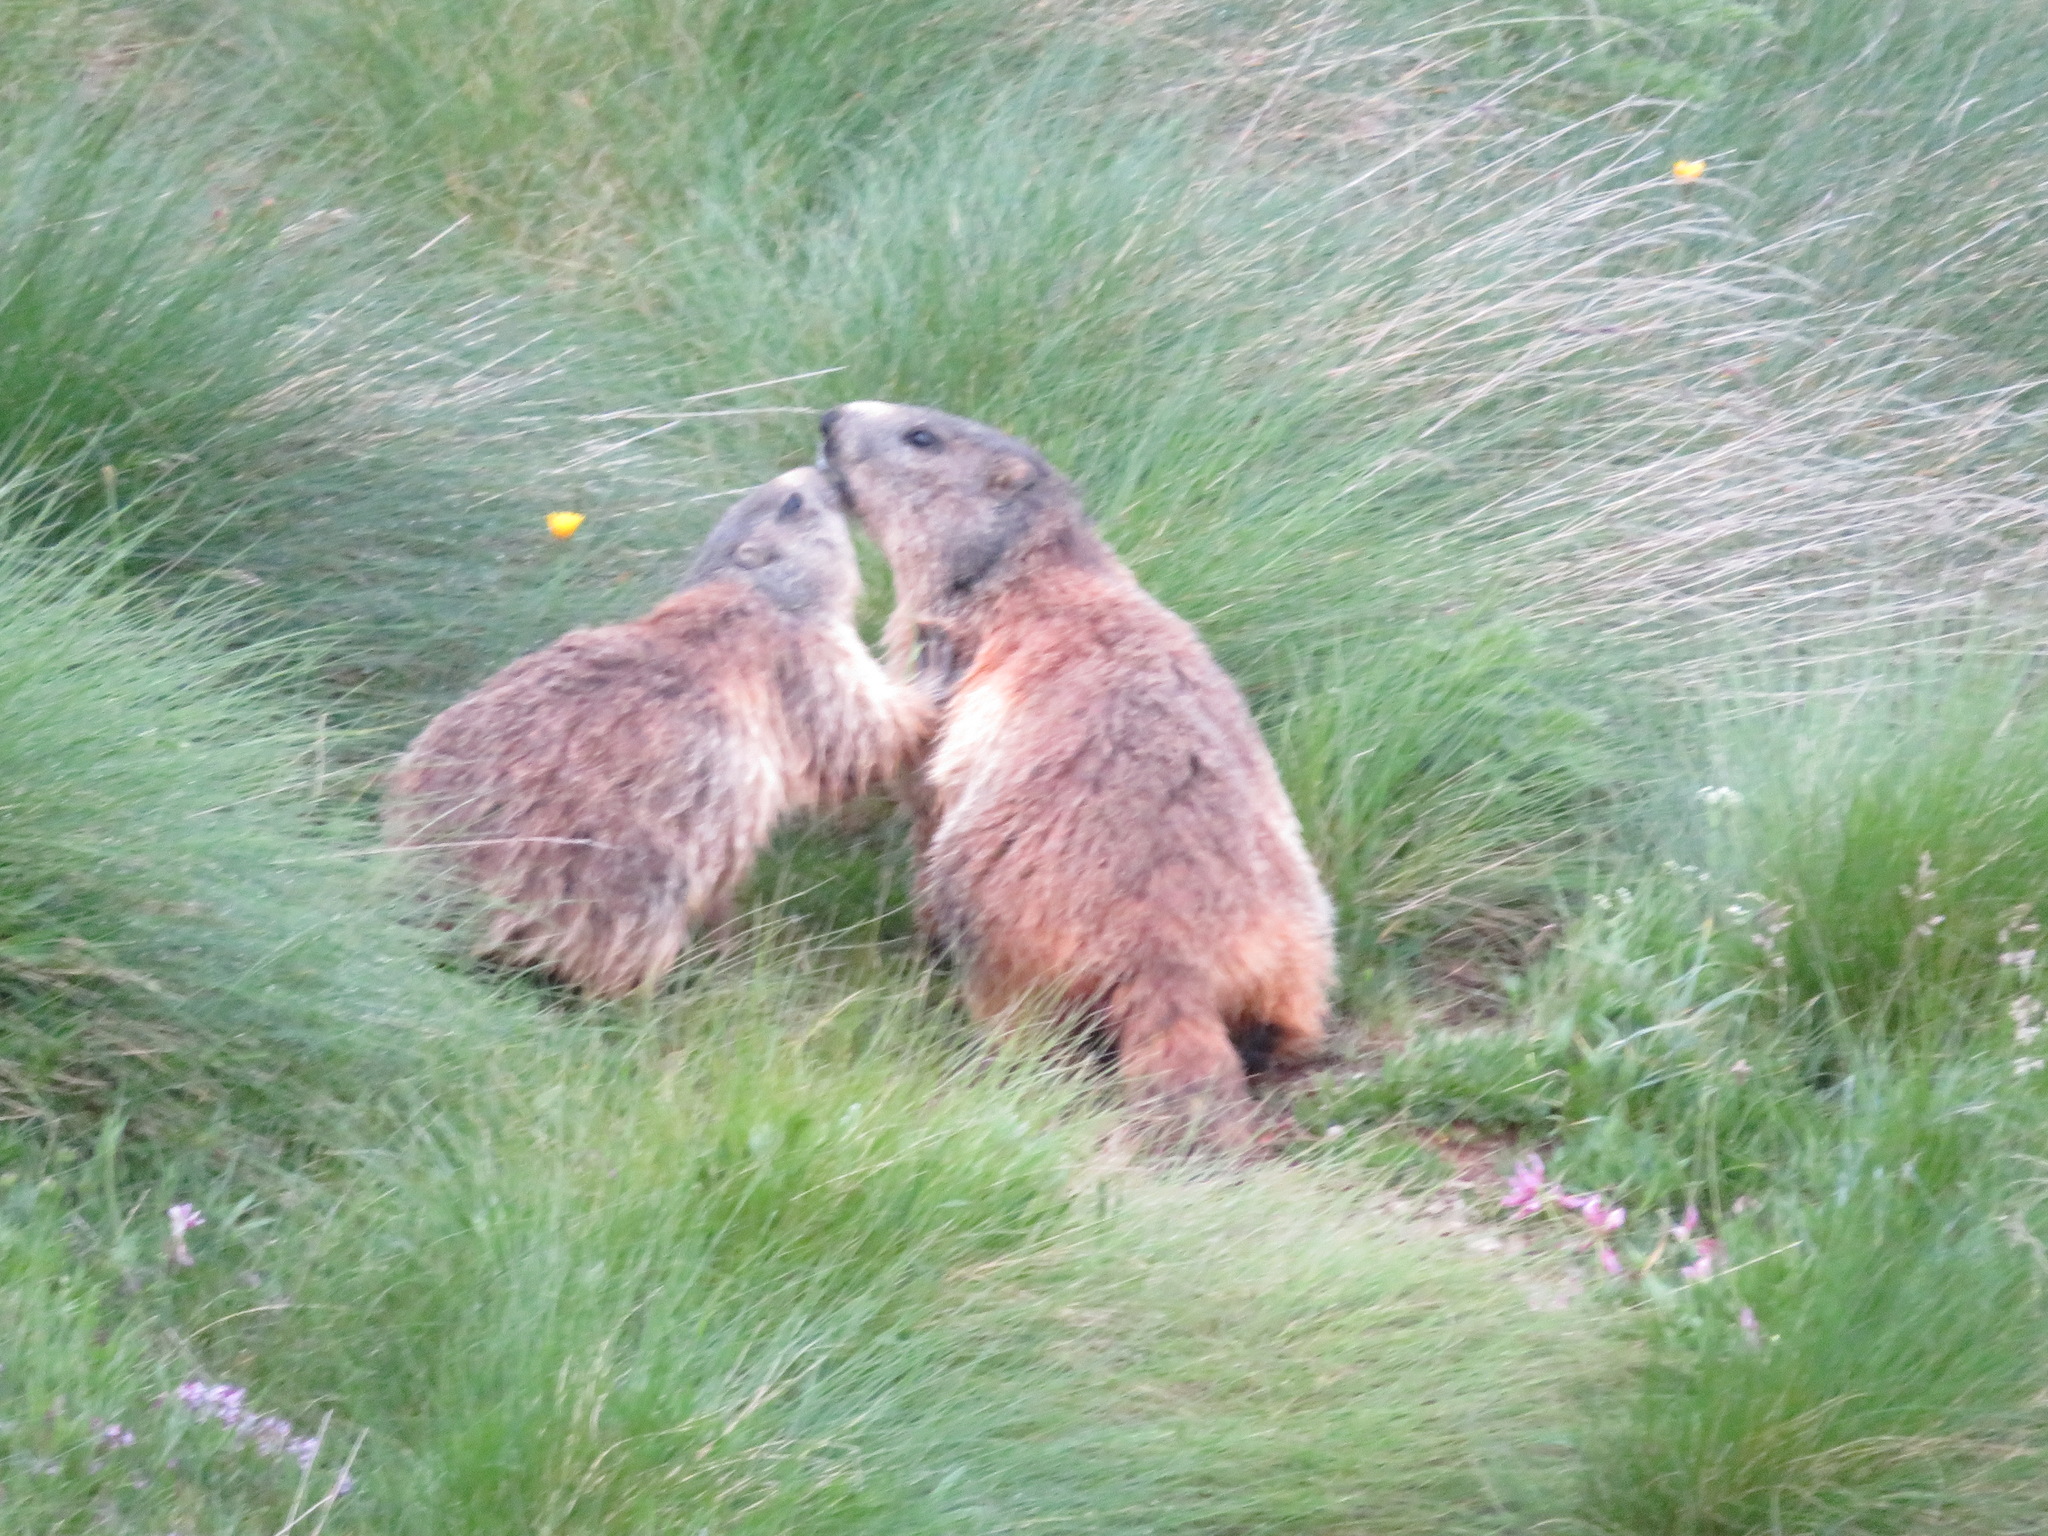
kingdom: Animalia
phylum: Chordata
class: Mammalia
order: Rodentia
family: Sciuridae
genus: Marmota
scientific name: Marmota marmota
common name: Alpine marmot
